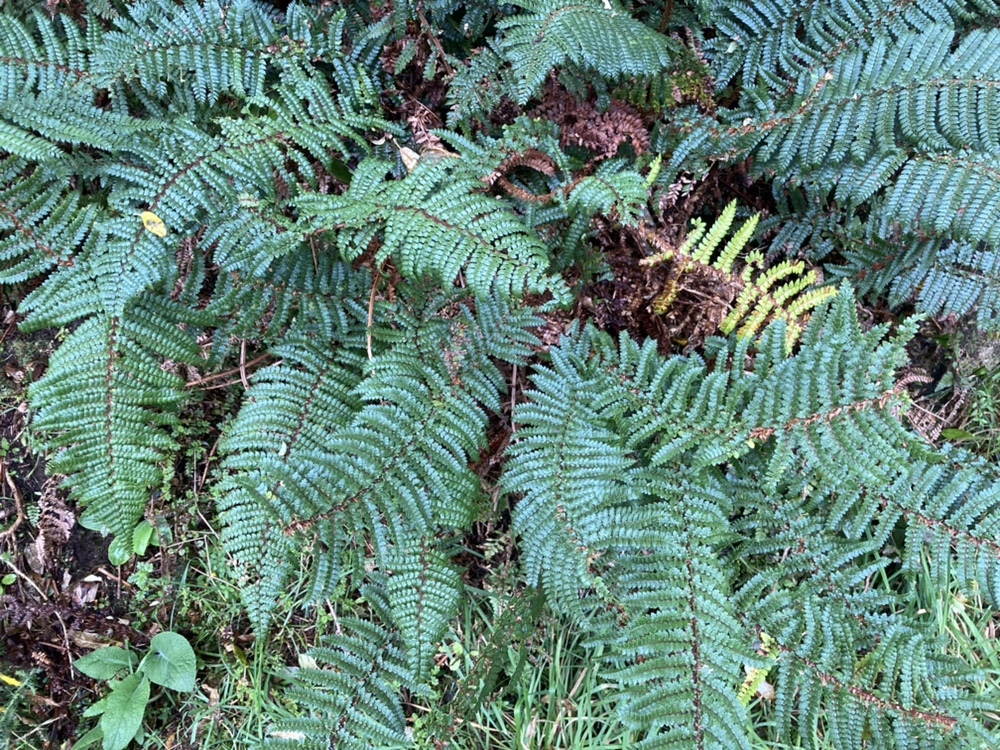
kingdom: Plantae
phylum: Tracheophyta
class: Polypodiopsida
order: Polypodiales
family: Dryopteridaceae
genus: Polystichum
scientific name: Polystichum vestitum
